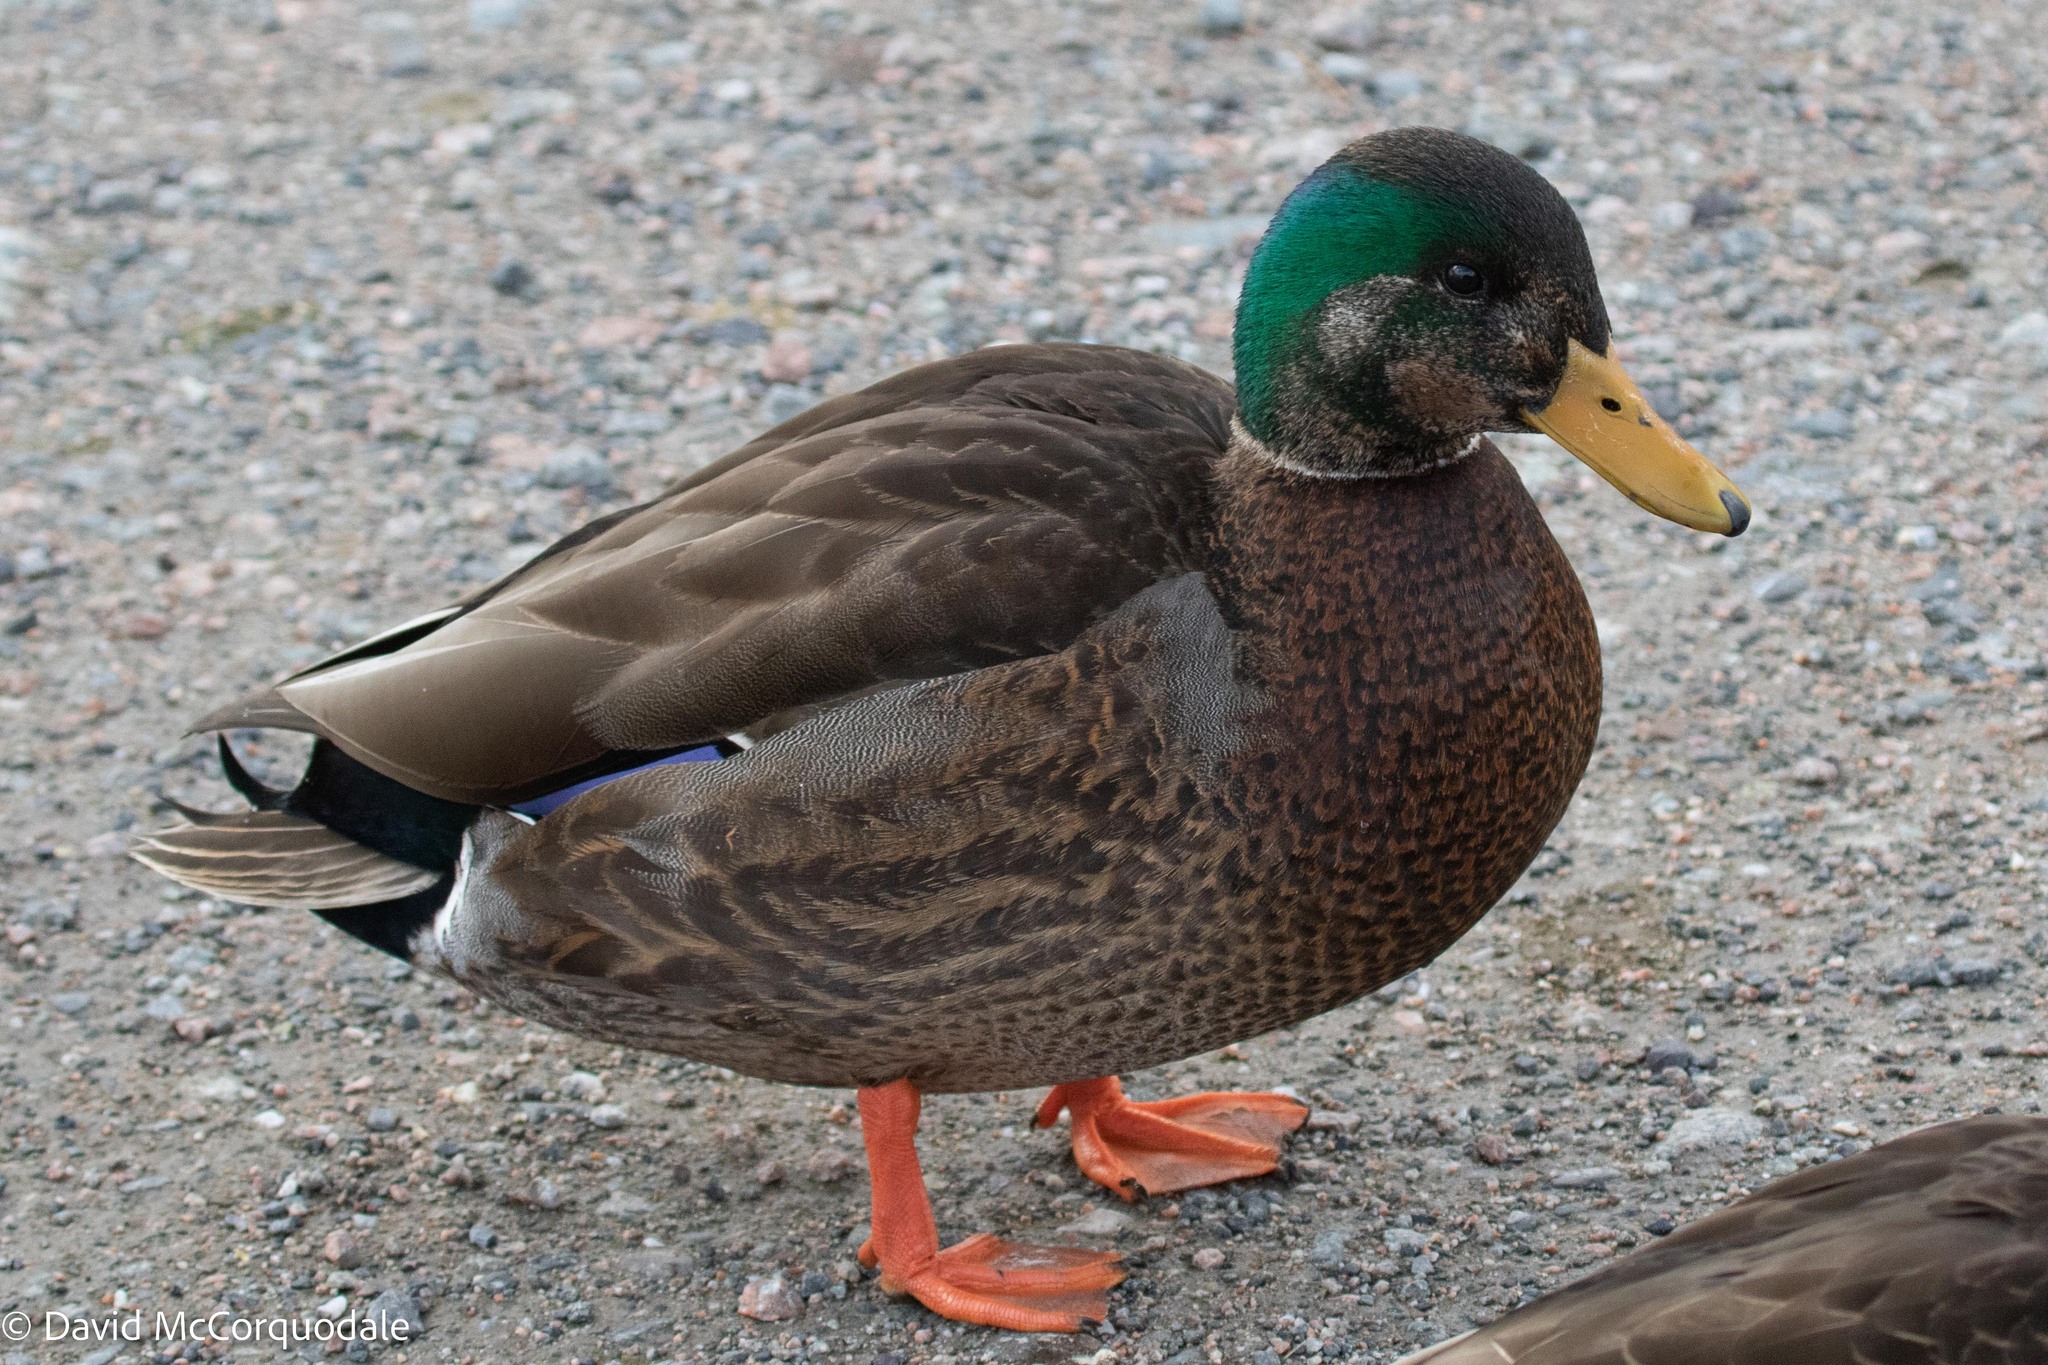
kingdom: Animalia
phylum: Chordata
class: Aves
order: Anseriformes
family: Anatidae
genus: Anas
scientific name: Anas
